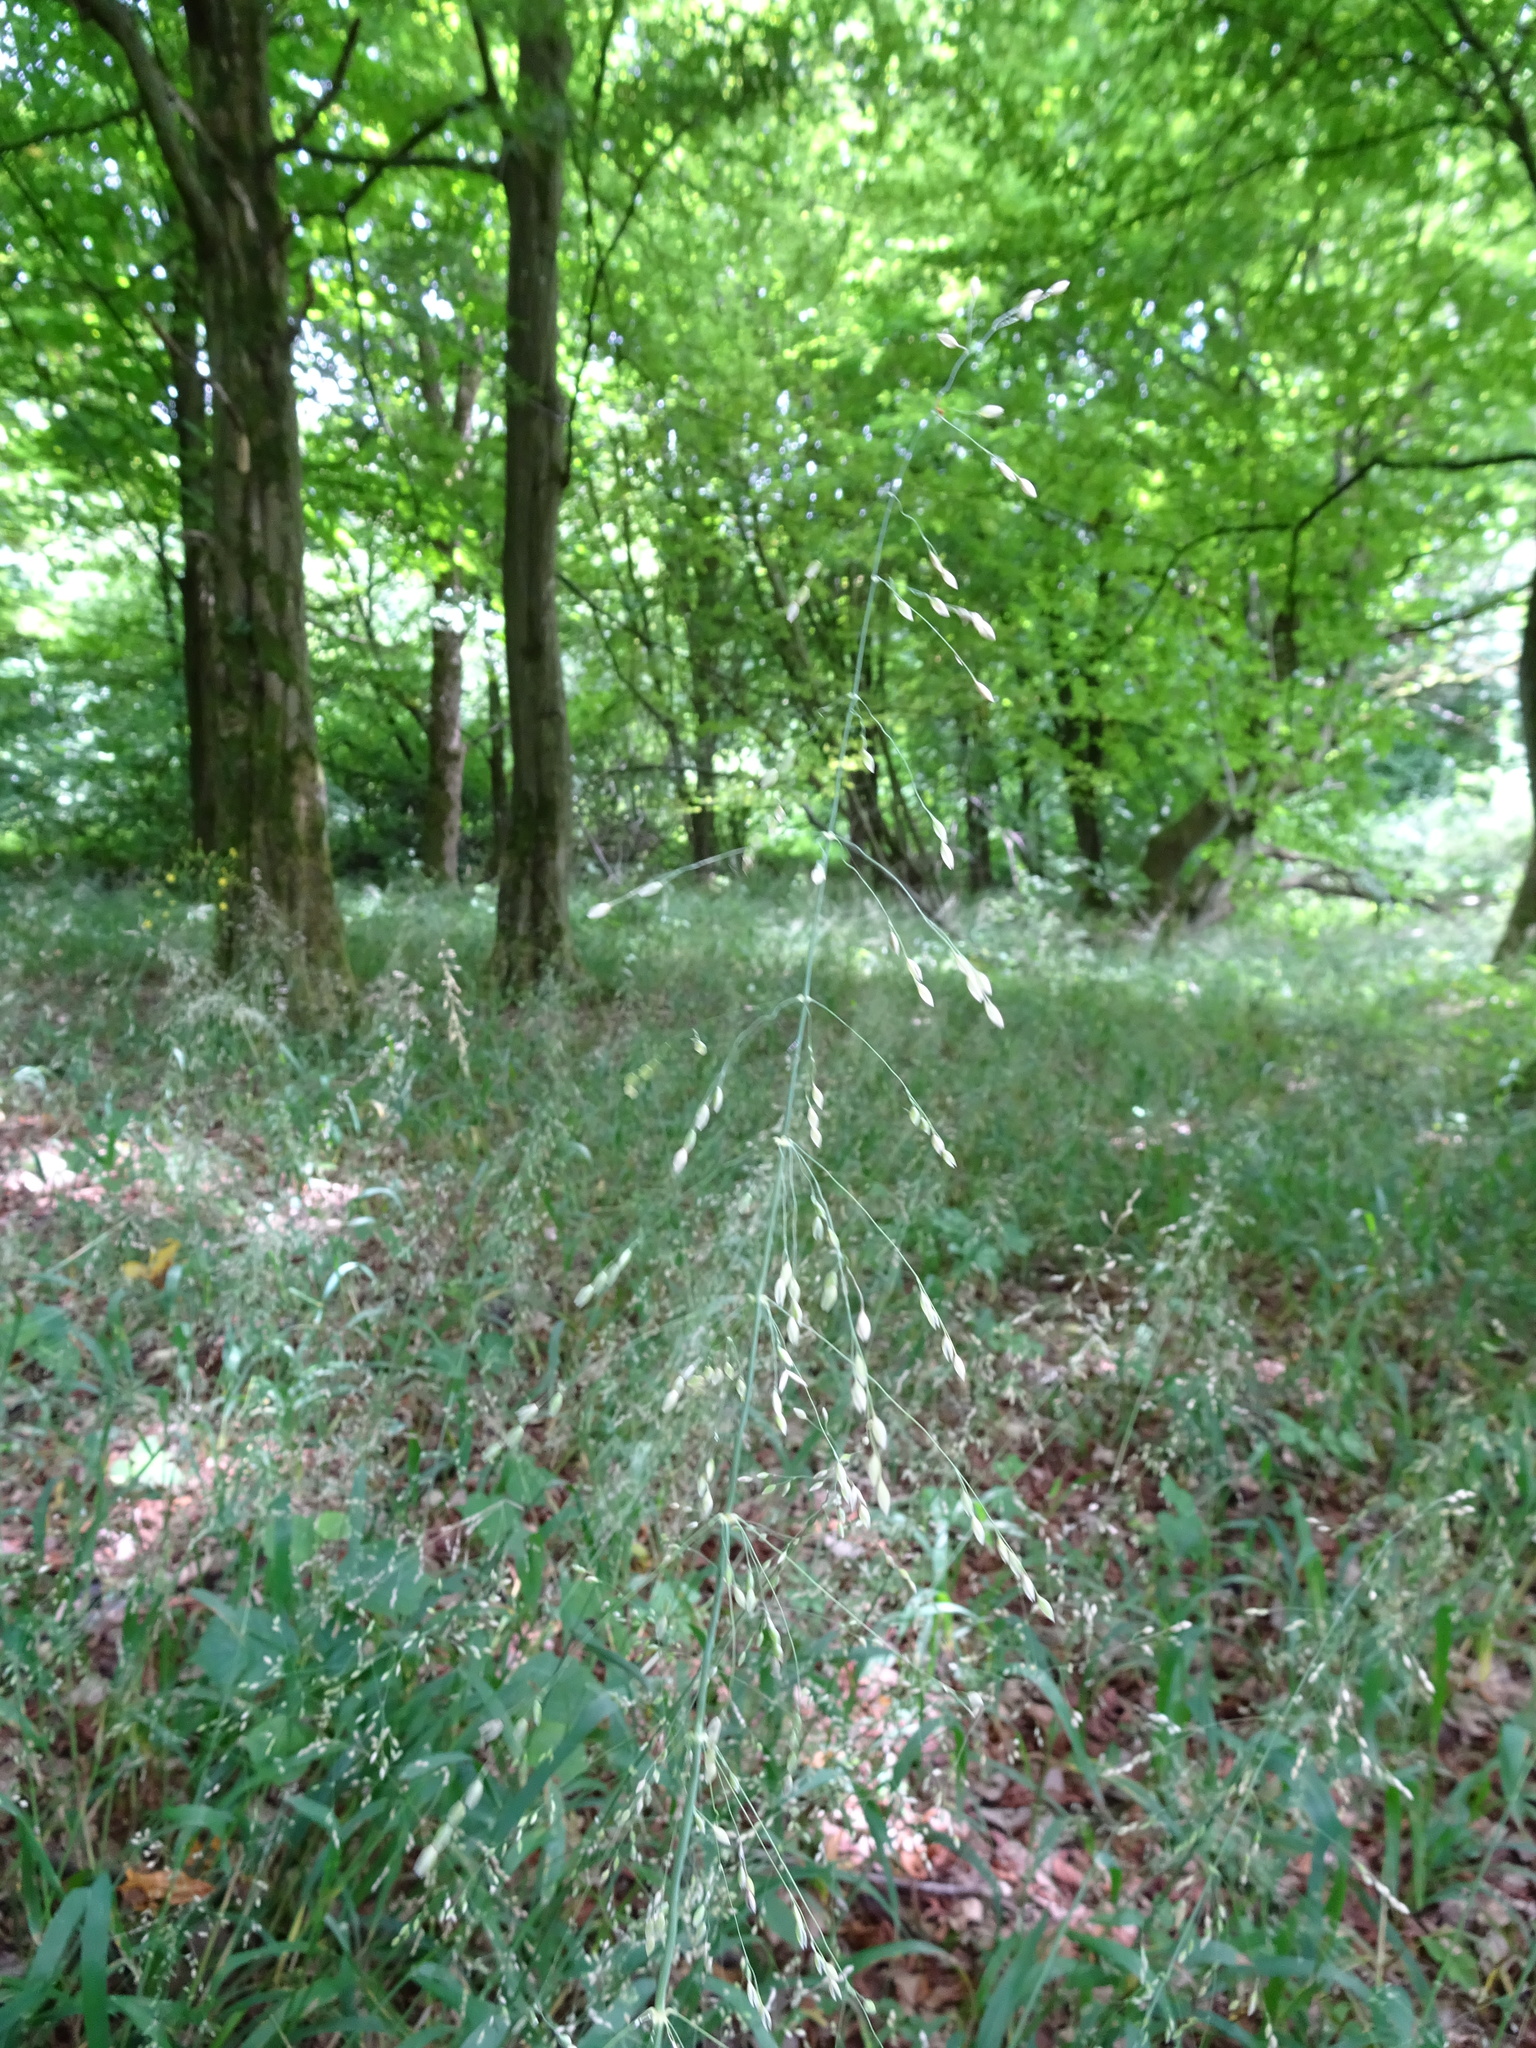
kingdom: Plantae
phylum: Tracheophyta
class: Liliopsida
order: Poales
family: Poaceae
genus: Milium
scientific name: Milium effusum
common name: Wood millet
